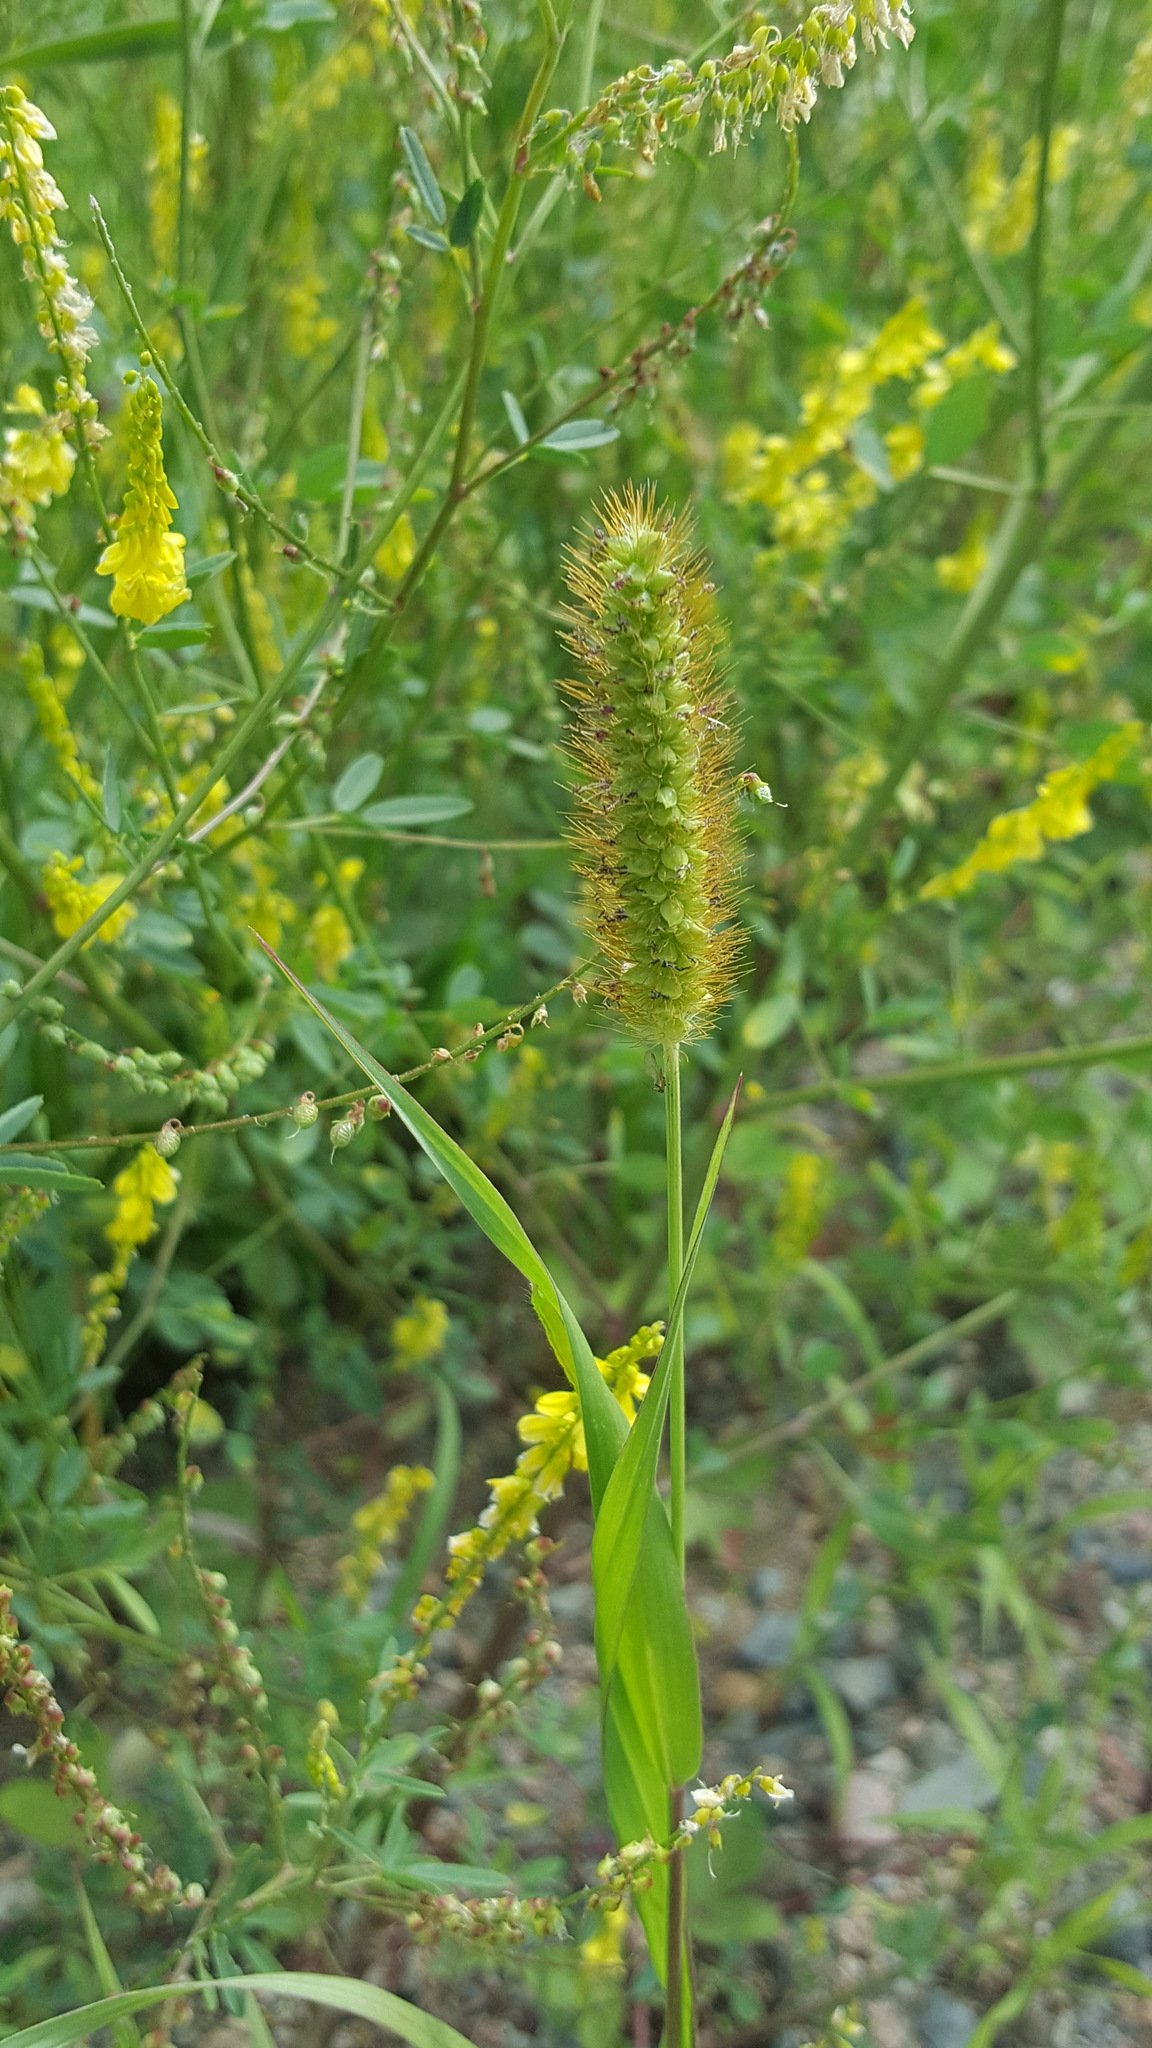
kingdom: Plantae
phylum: Tracheophyta
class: Liliopsida
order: Poales
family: Poaceae
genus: Setaria
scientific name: Setaria pumila
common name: Yellow bristle-grass
